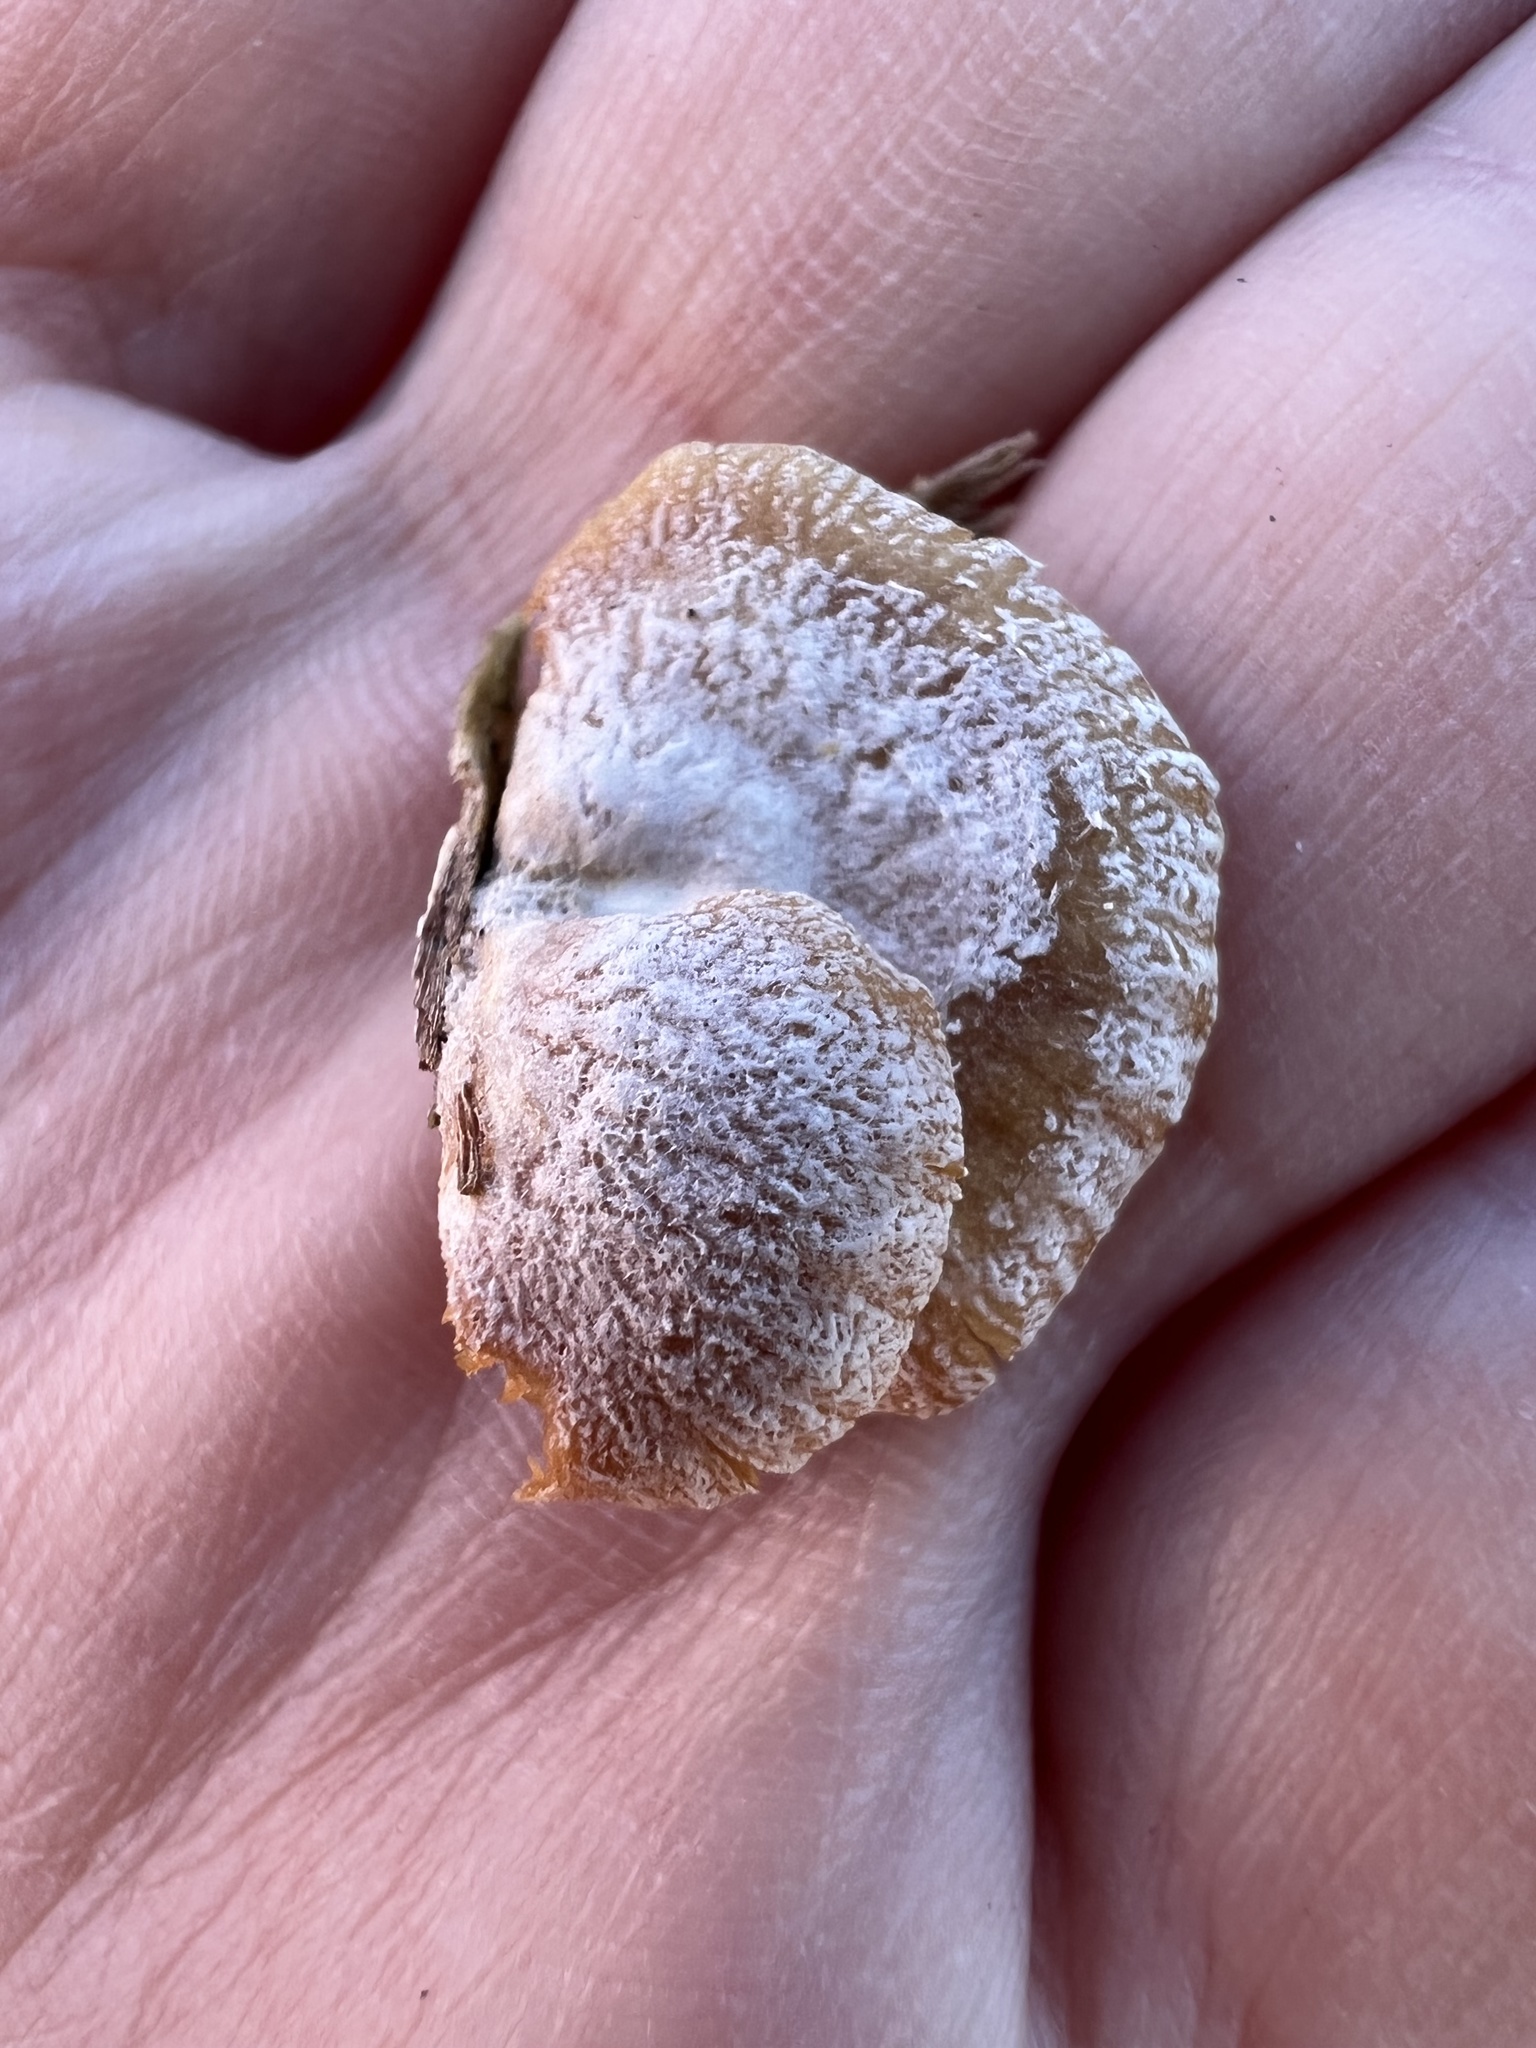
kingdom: Fungi
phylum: Basidiomycota
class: Agaricomycetes
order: Agaricales
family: Mycenaceae
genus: Panellus
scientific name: Panellus stipticus
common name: Bitter oysterling
